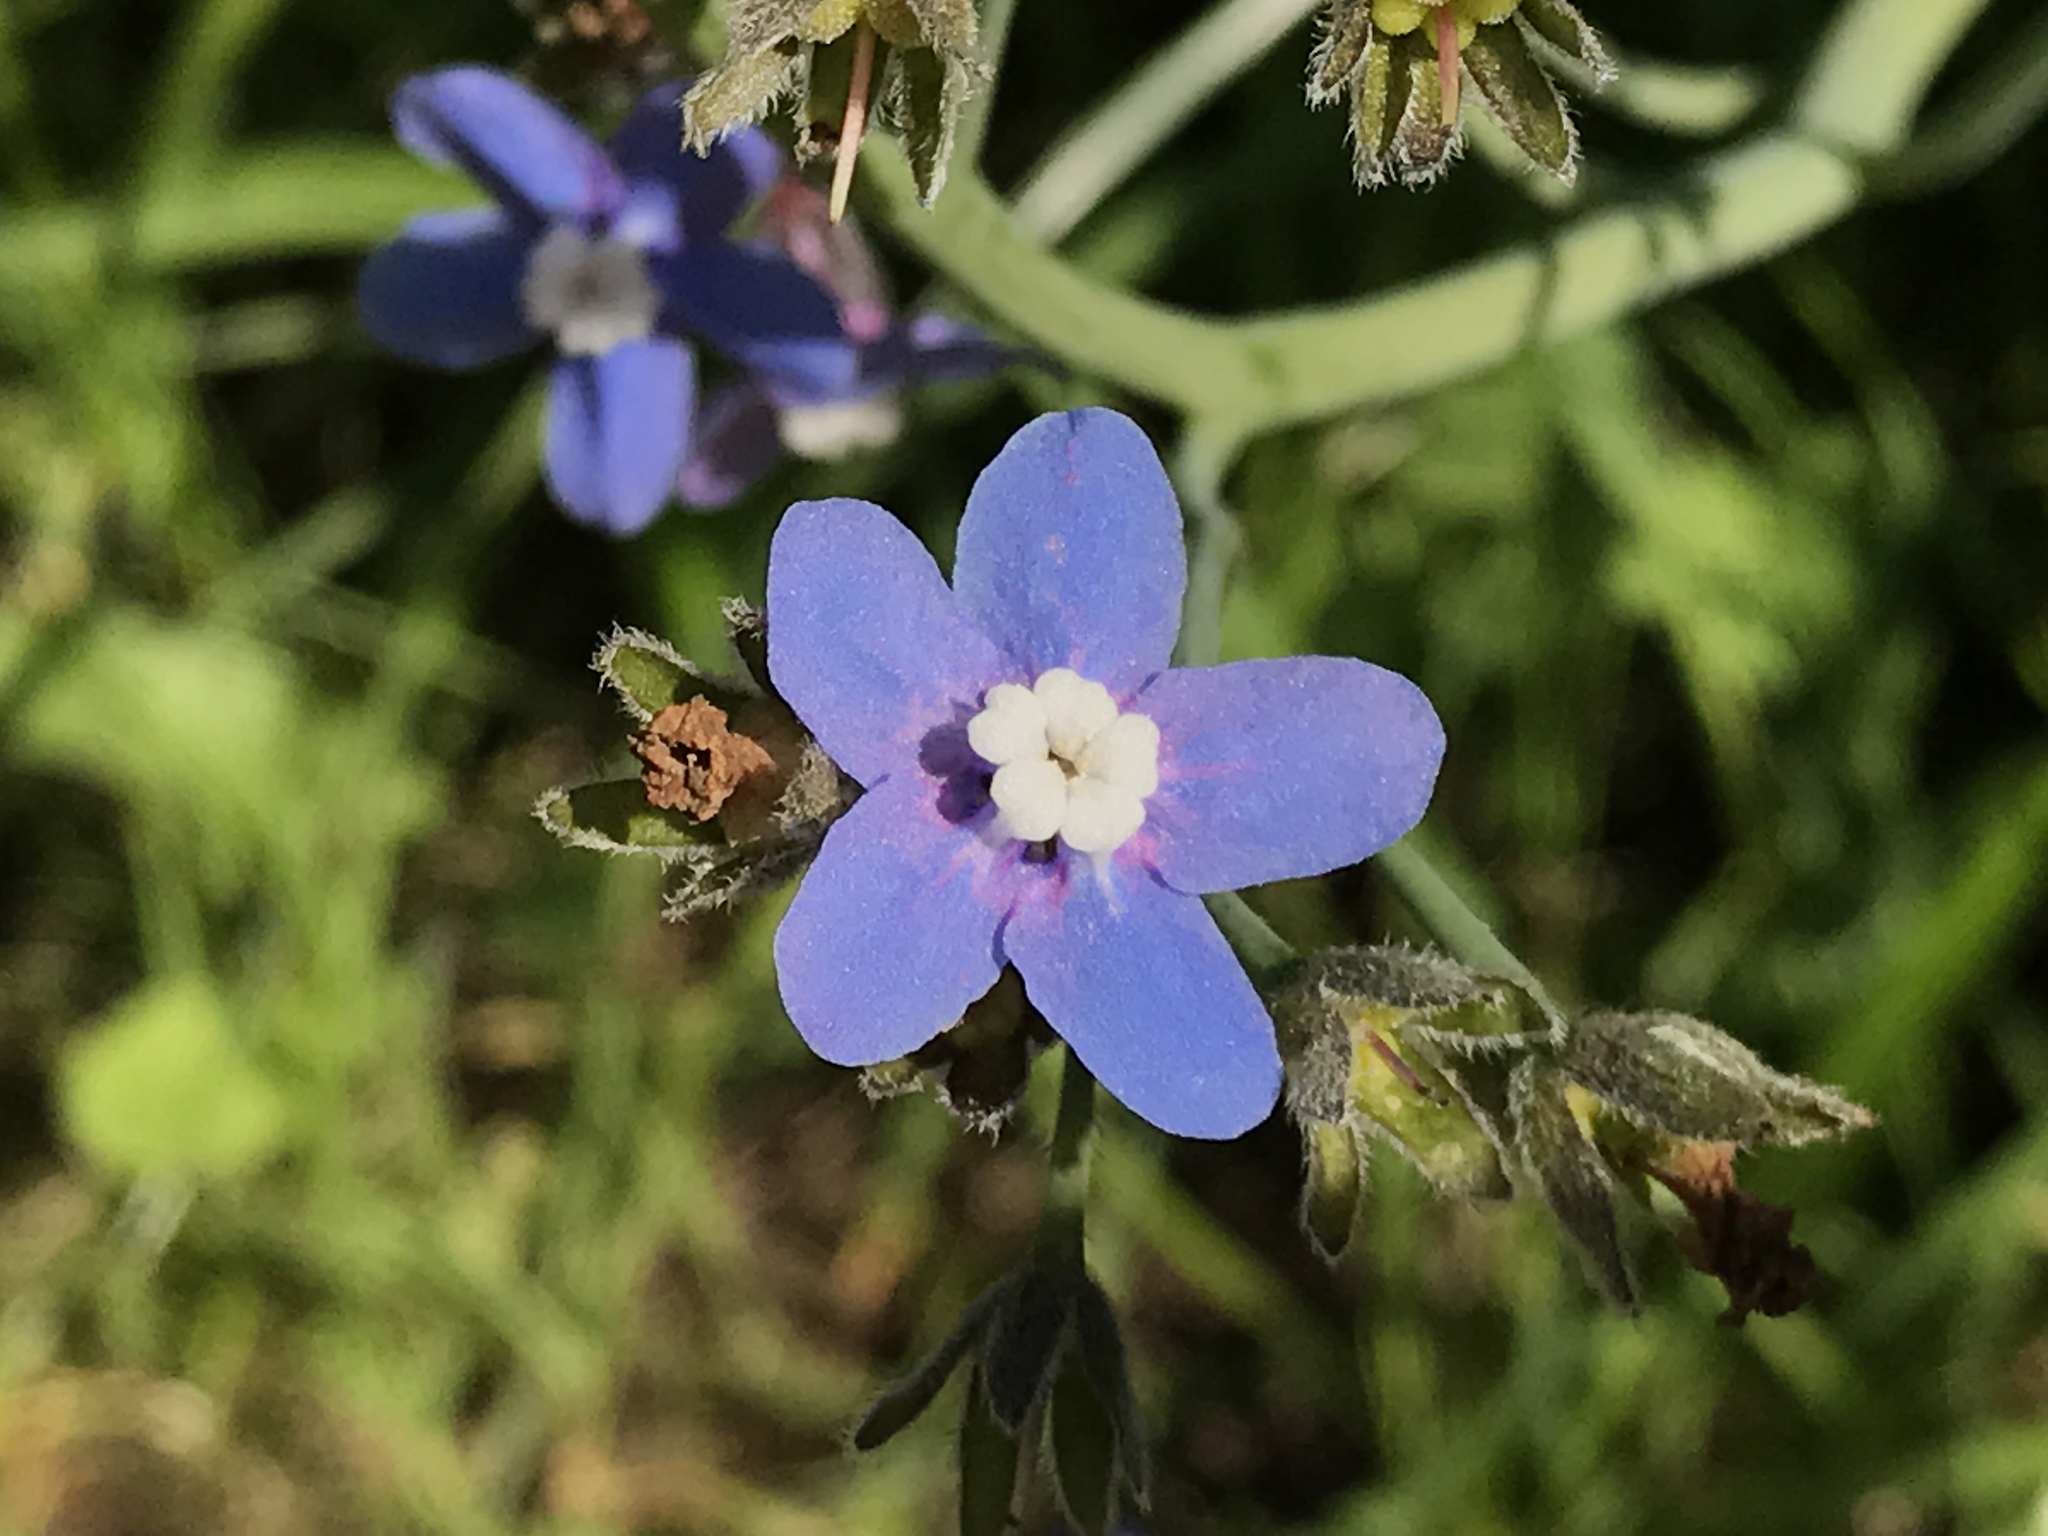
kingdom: Plantae
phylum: Tracheophyta
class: Magnoliopsida
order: Boraginales
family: Boraginaceae
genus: Adelinia
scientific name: Adelinia grande
